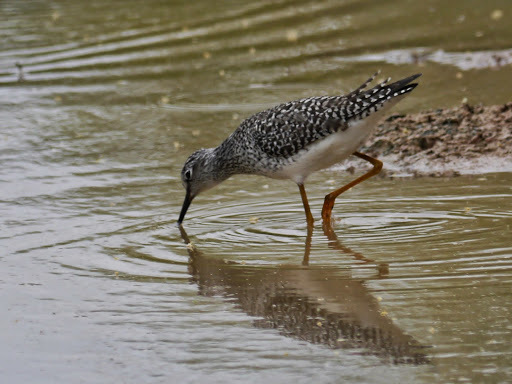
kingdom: Animalia
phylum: Chordata
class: Aves
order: Charadriiformes
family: Scolopacidae
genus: Tringa
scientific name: Tringa flavipes
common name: Lesser yellowlegs
